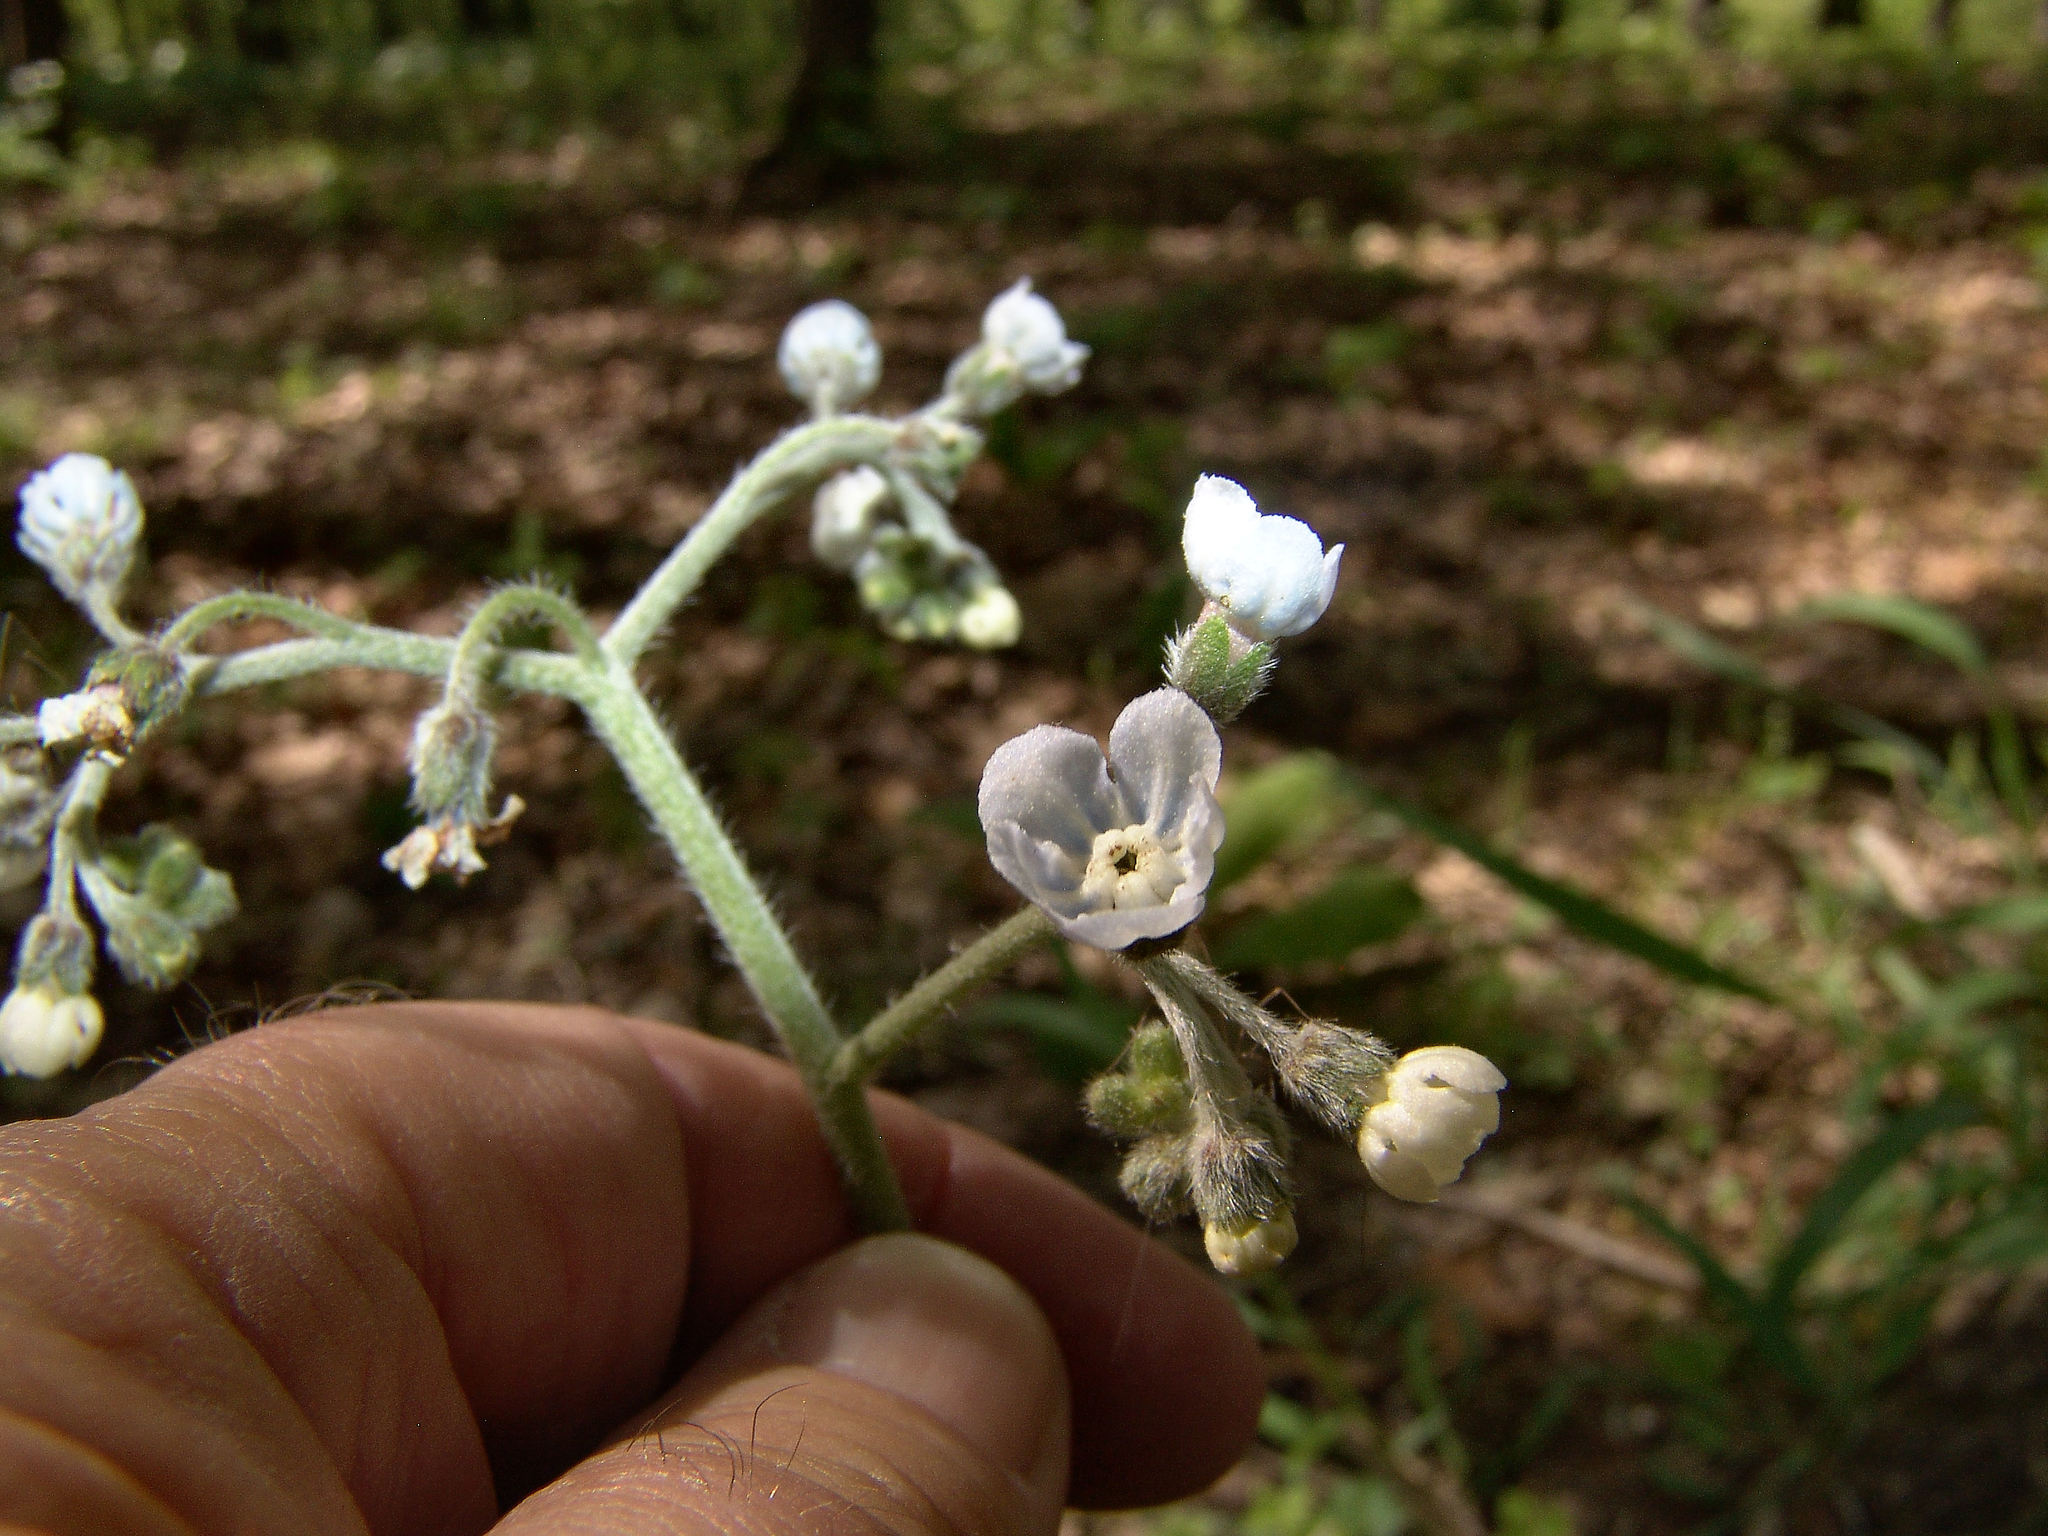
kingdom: Plantae
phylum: Tracheophyta
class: Magnoliopsida
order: Boraginales
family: Boraginaceae
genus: Andersonglossum
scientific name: Andersonglossum virginianum
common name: Wild comfrey
